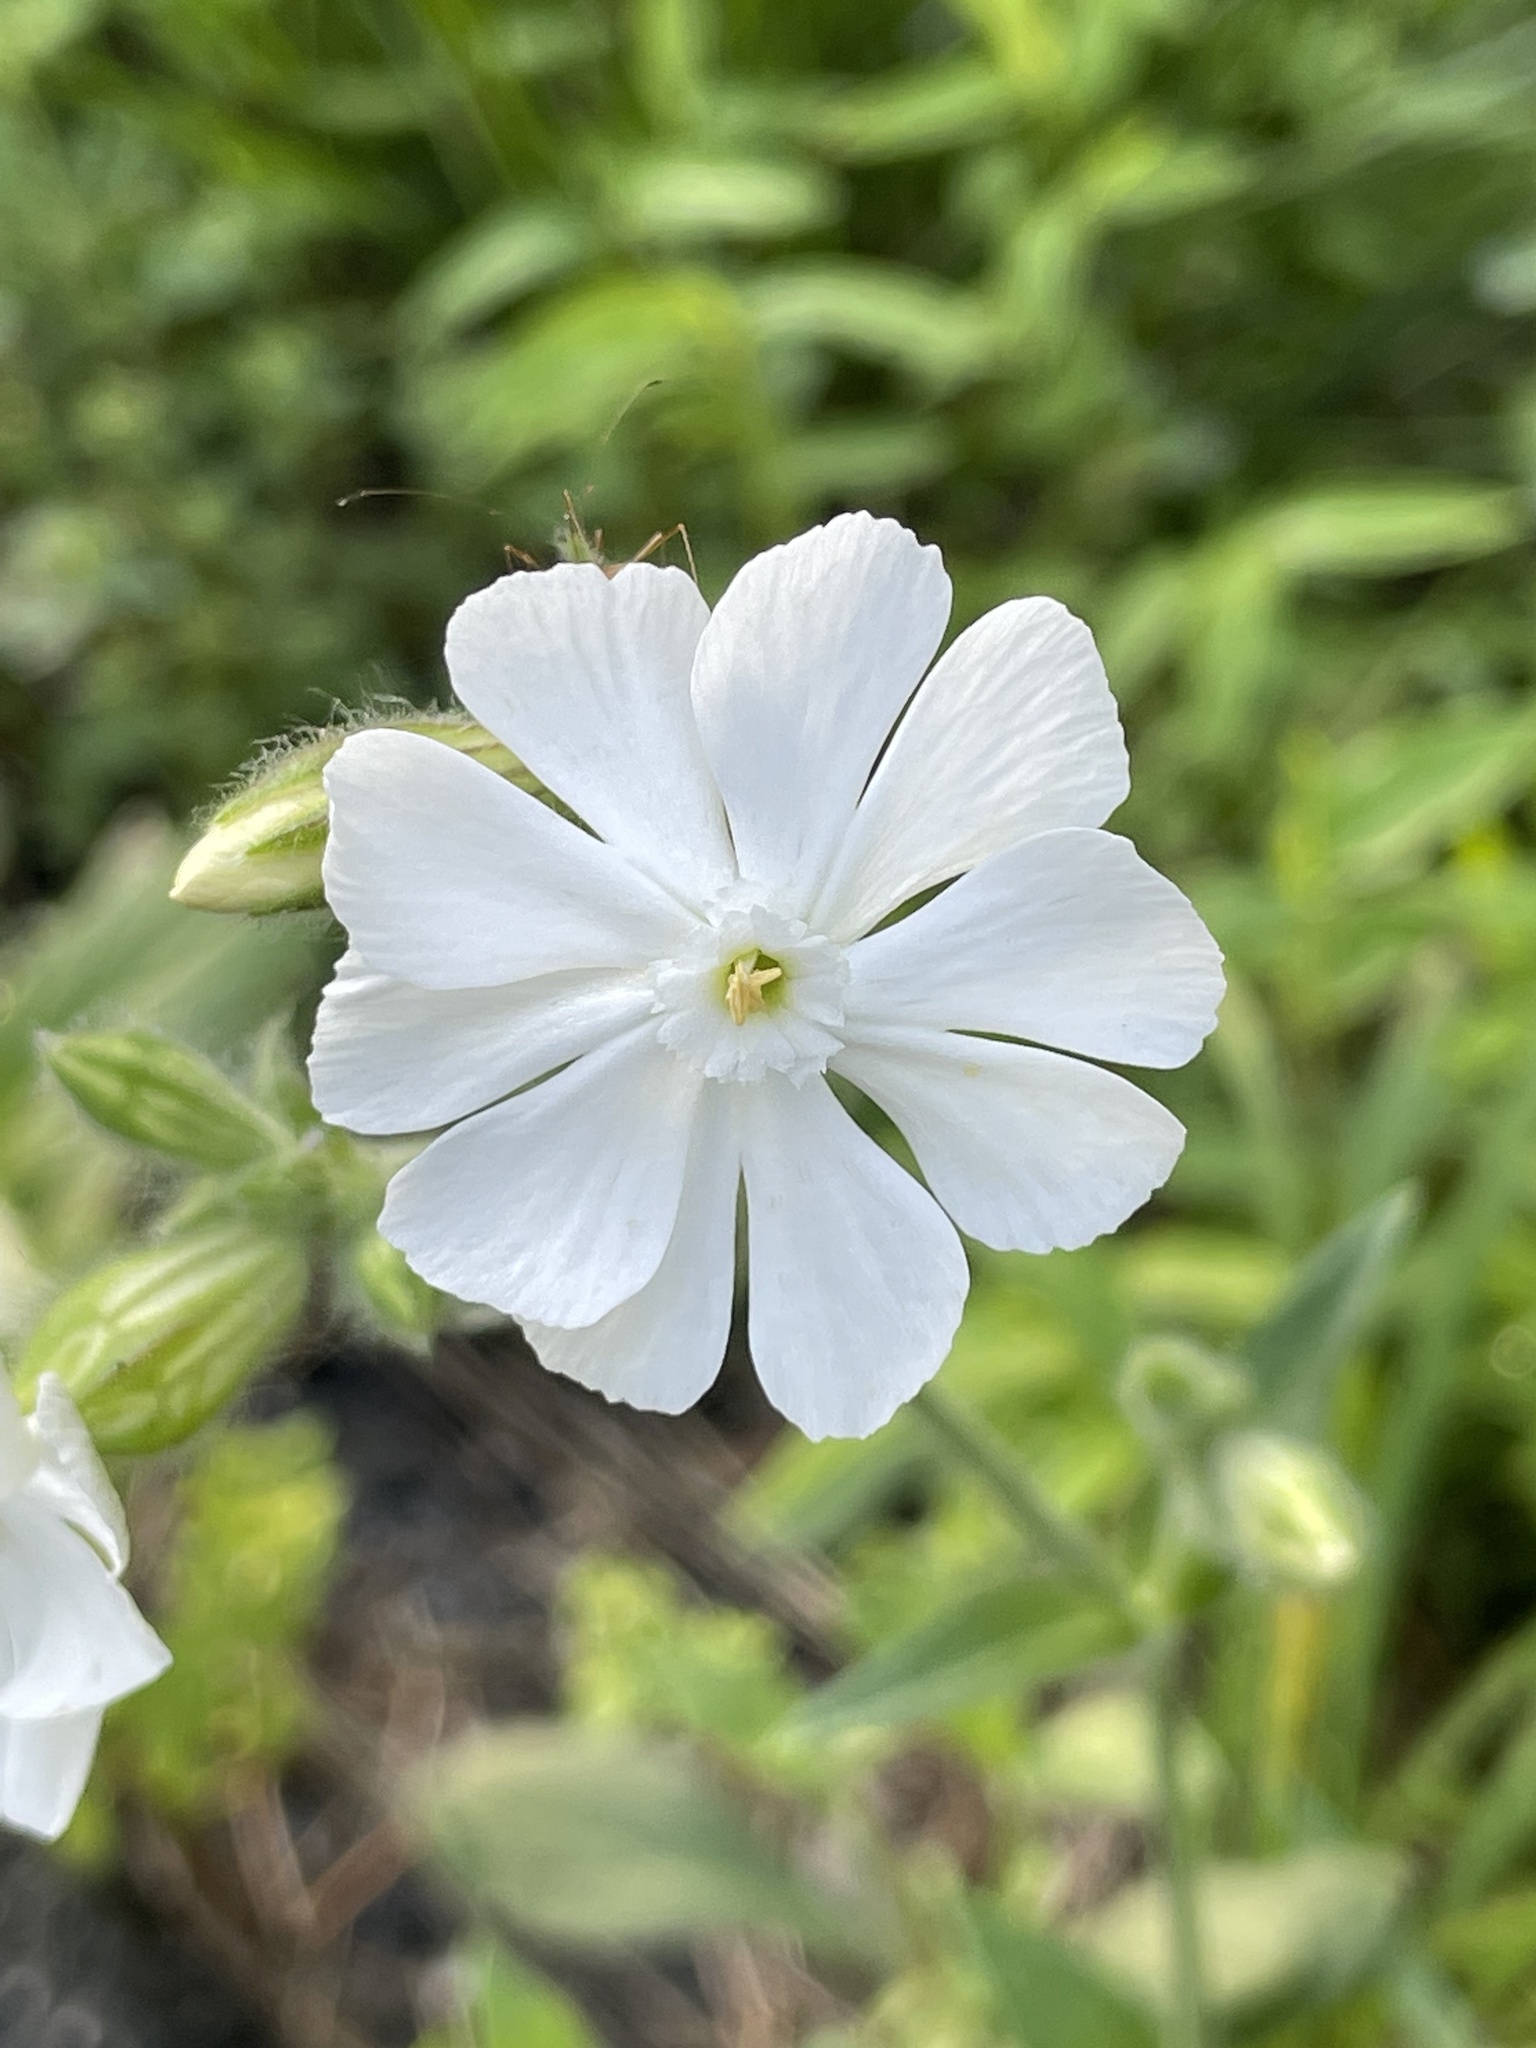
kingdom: Plantae
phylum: Tracheophyta
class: Magnoliopsida
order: Caryophyllales
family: Caryophyllaceae
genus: Silene
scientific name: Silene latifolia
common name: White campion
